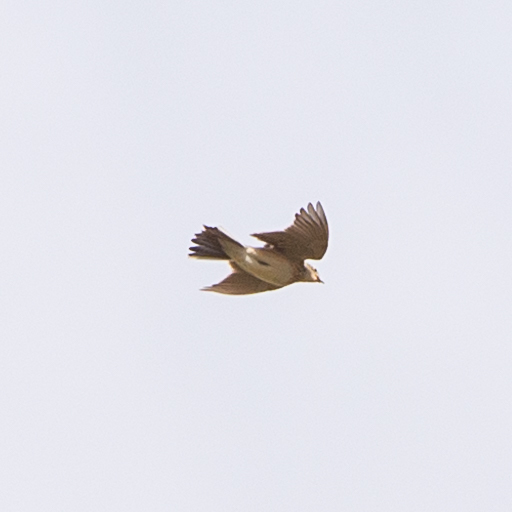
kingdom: Animalia
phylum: Chordata
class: Aves
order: Passeriformes
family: Alaudidae
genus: Alauda
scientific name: Alauda arvensis
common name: Eurasian skylark
